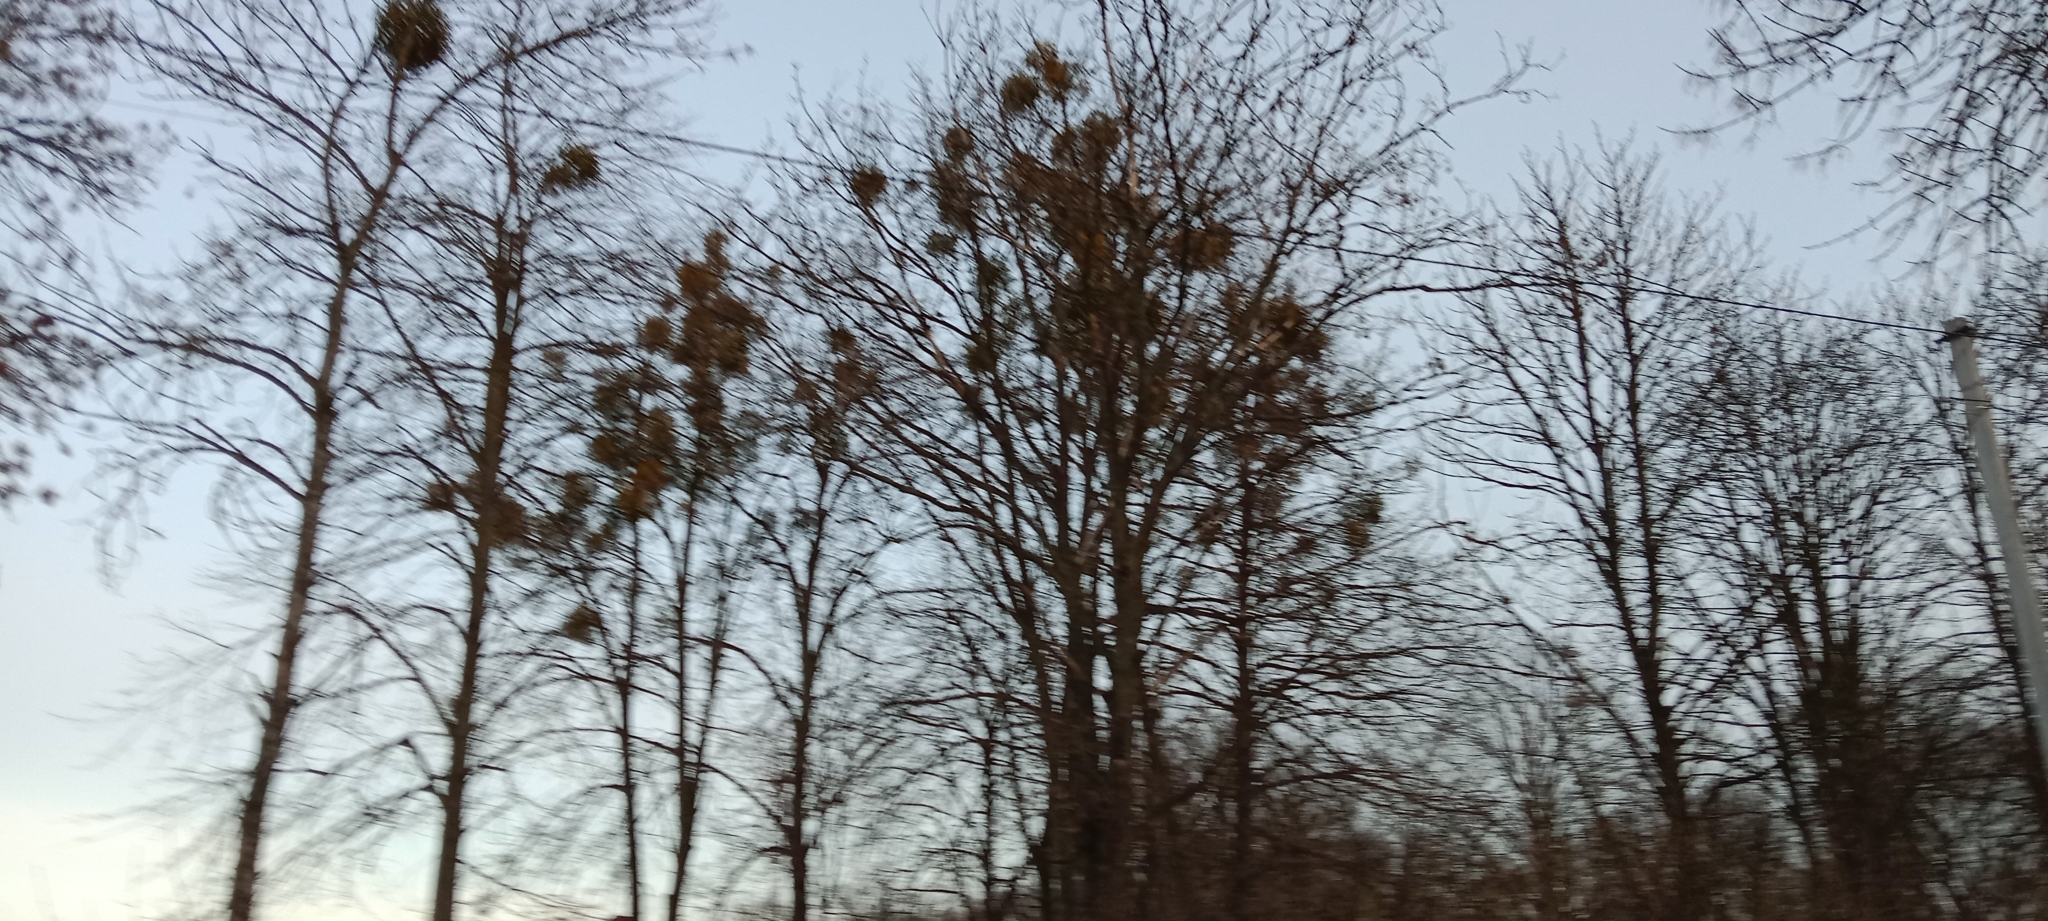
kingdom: Plantae
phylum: Tracheophyta
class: Magnoliopsida
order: Santalales
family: Viscaceae
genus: Viscum
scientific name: Viscum album
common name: Mistletoe
